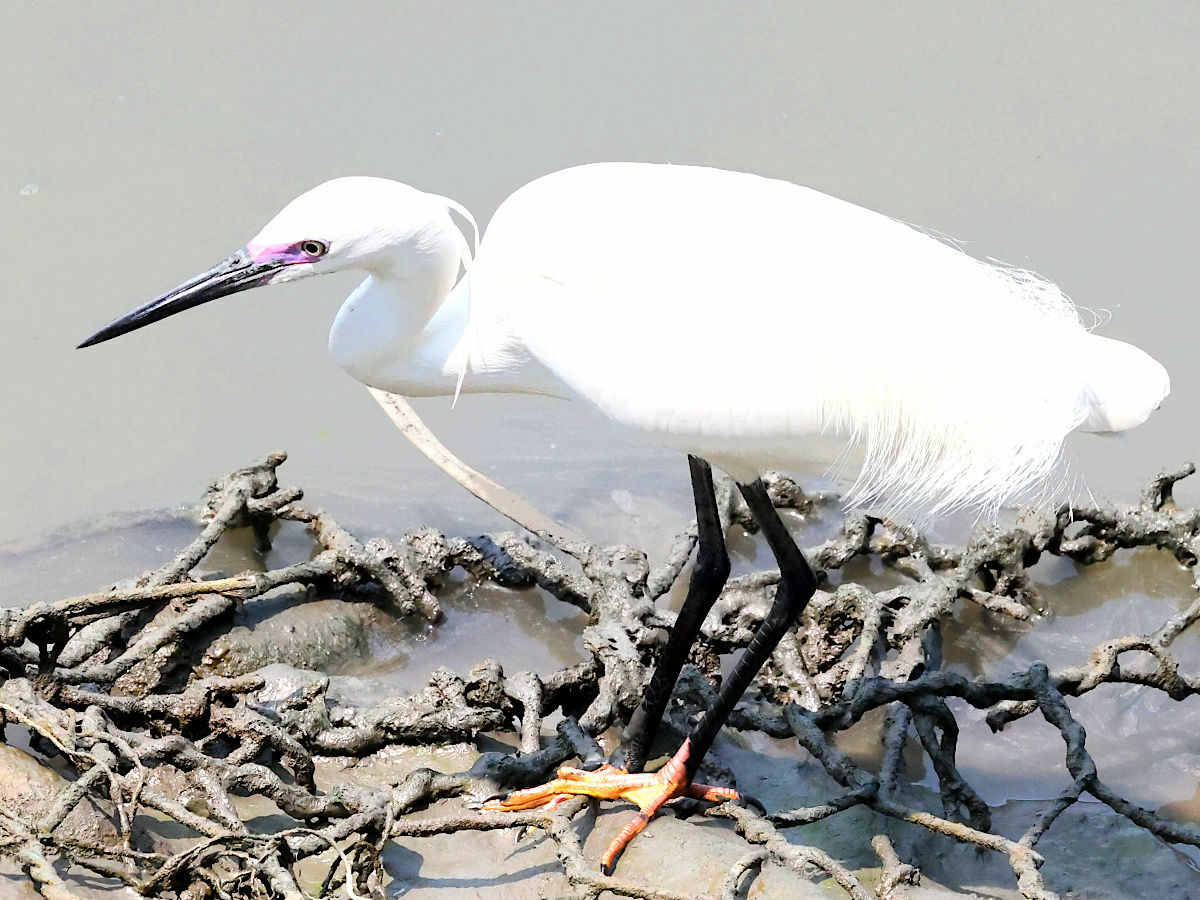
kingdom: Animalia
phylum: Chordata
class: Aves
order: Pelecaniformes
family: Ardeidae
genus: Egretta
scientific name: Egretta garzetta
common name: Little egret
